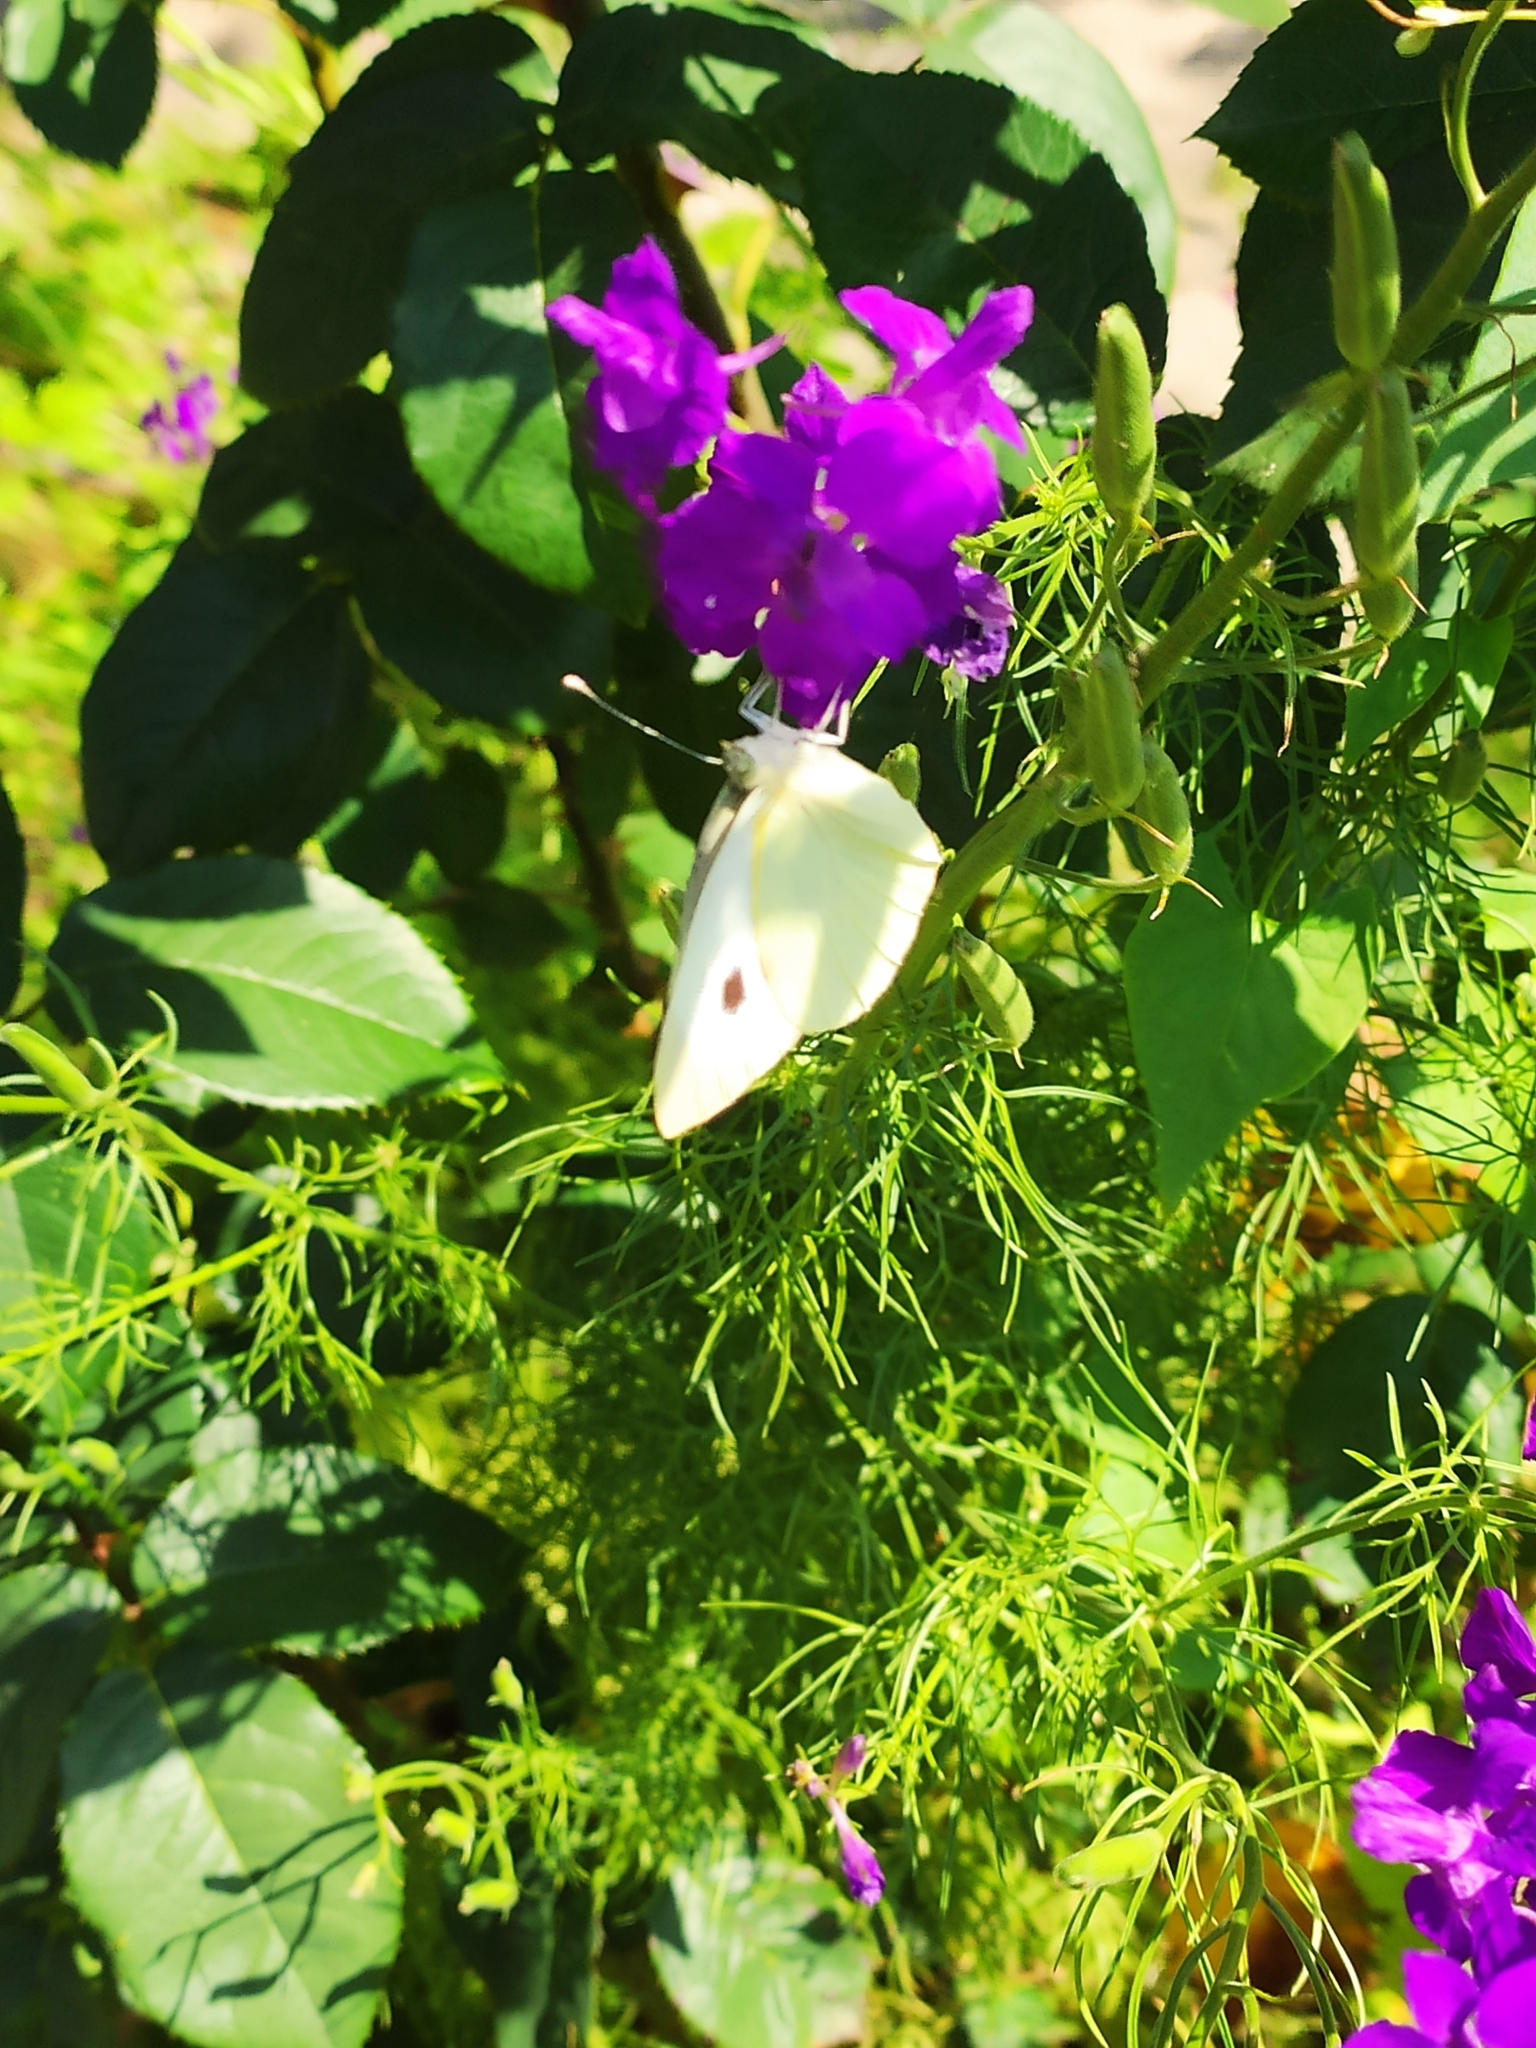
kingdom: Animalia
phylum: Arthropoda
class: Insecta
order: Lepidoptera
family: Pieridae
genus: Pieris
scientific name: Pieris brassicae
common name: Large white
